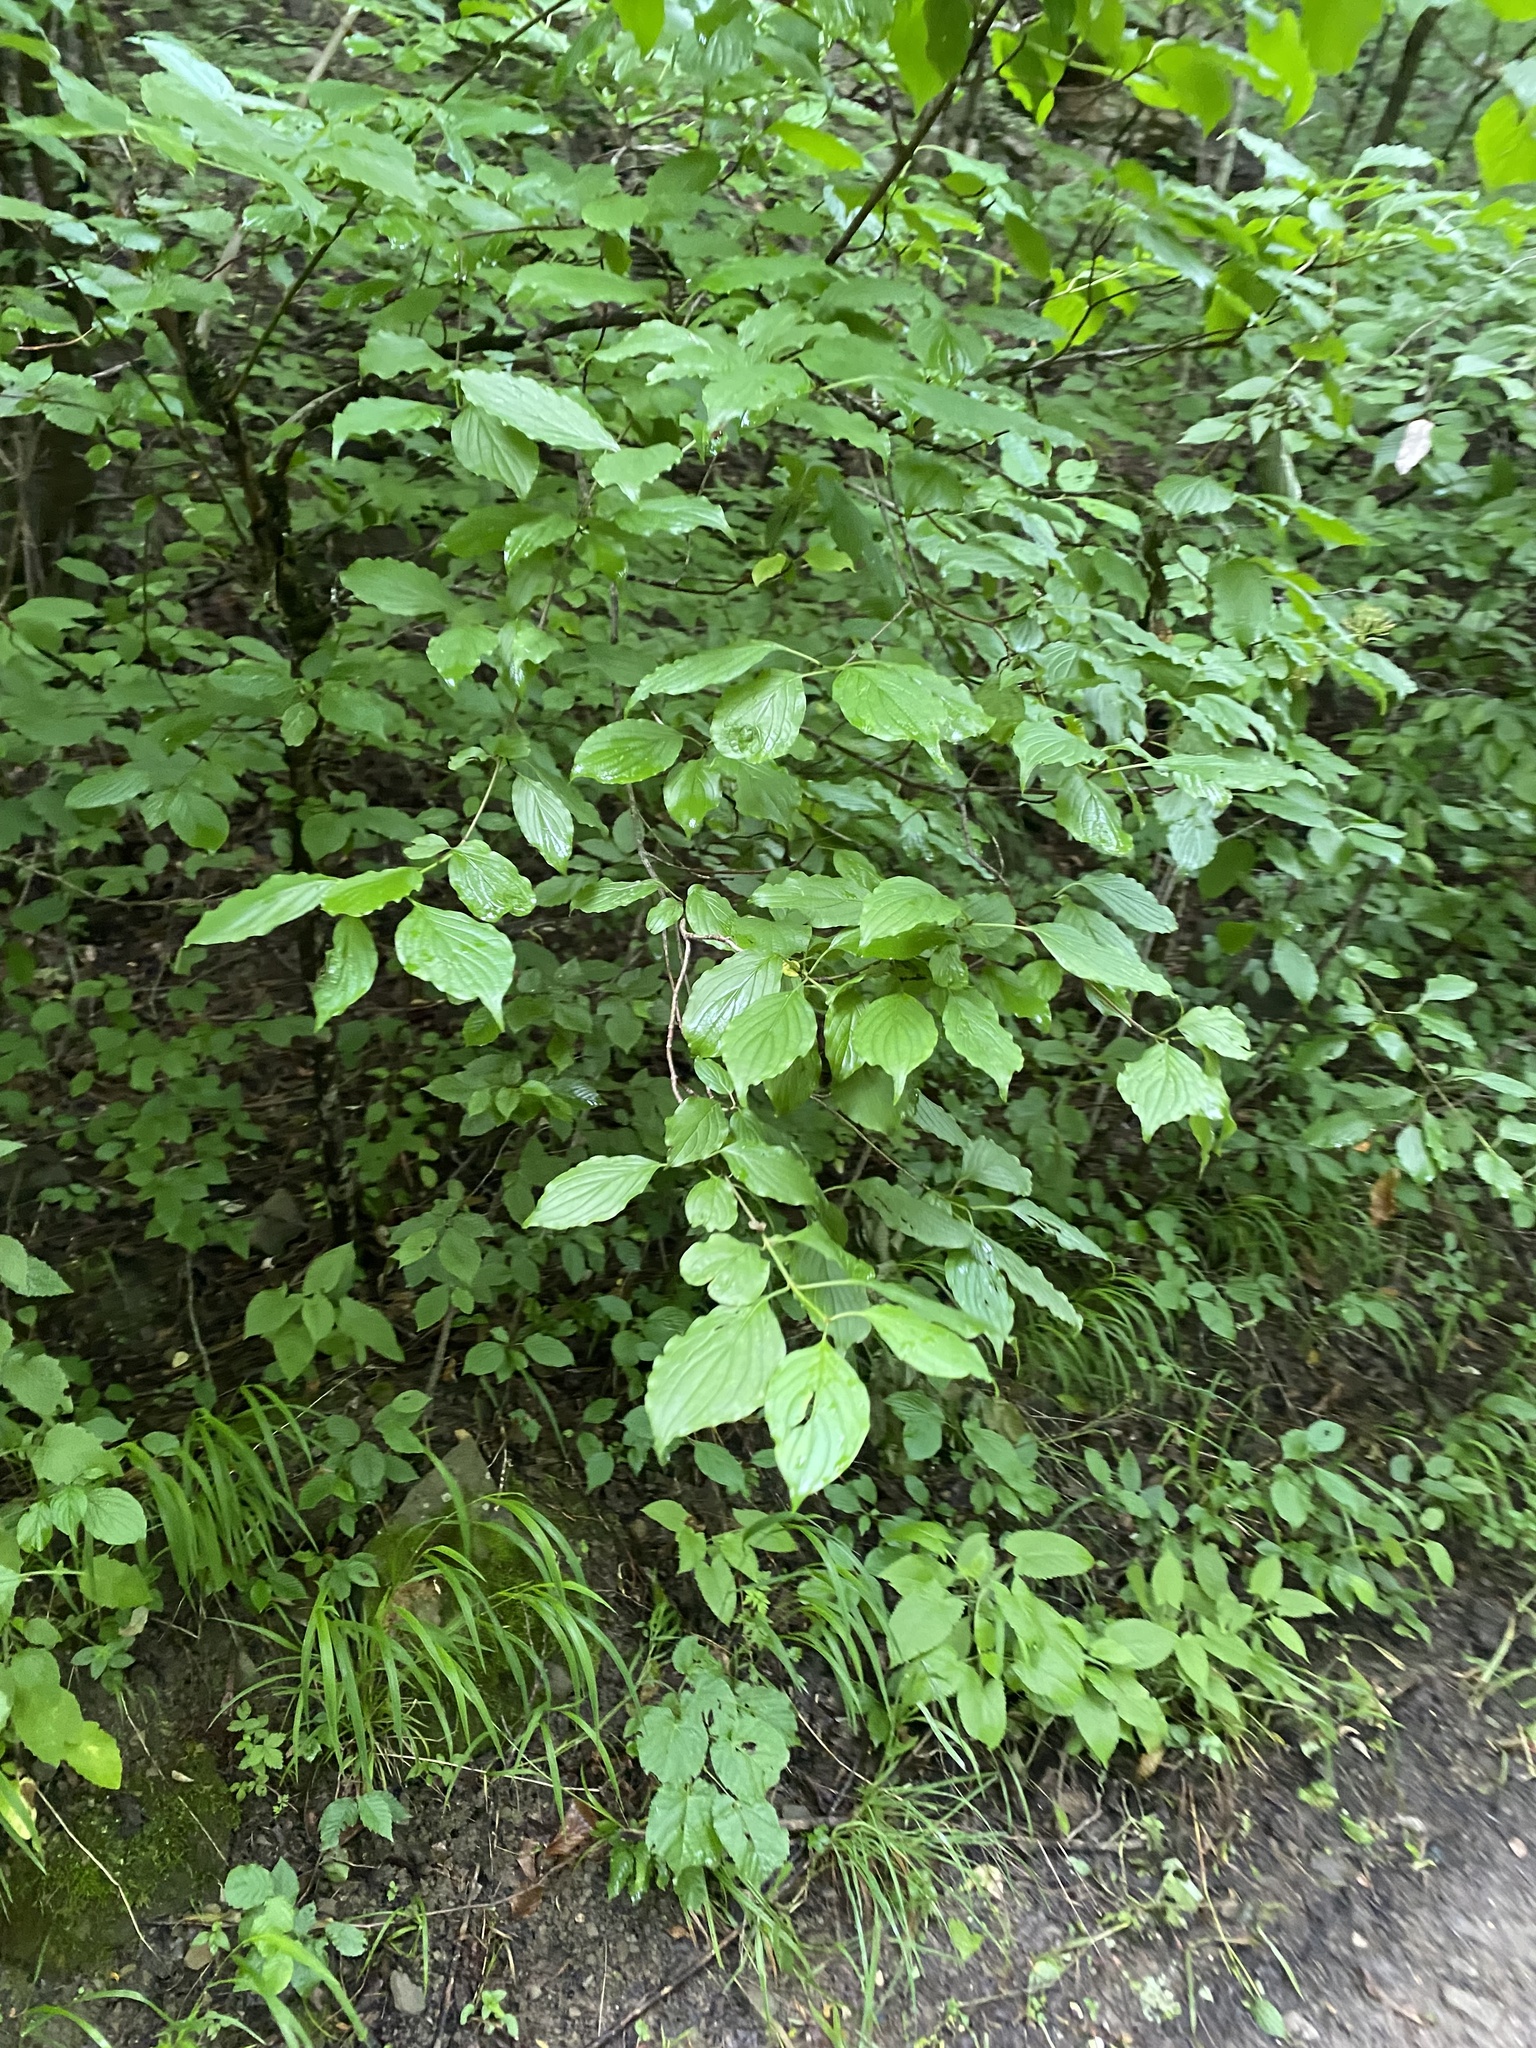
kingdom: Plantae
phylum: Tracheophyta
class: Magnoliopsida
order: Cornales
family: Cornaceae
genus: Cornus
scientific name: Cornus sanguinea
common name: Dogwood
